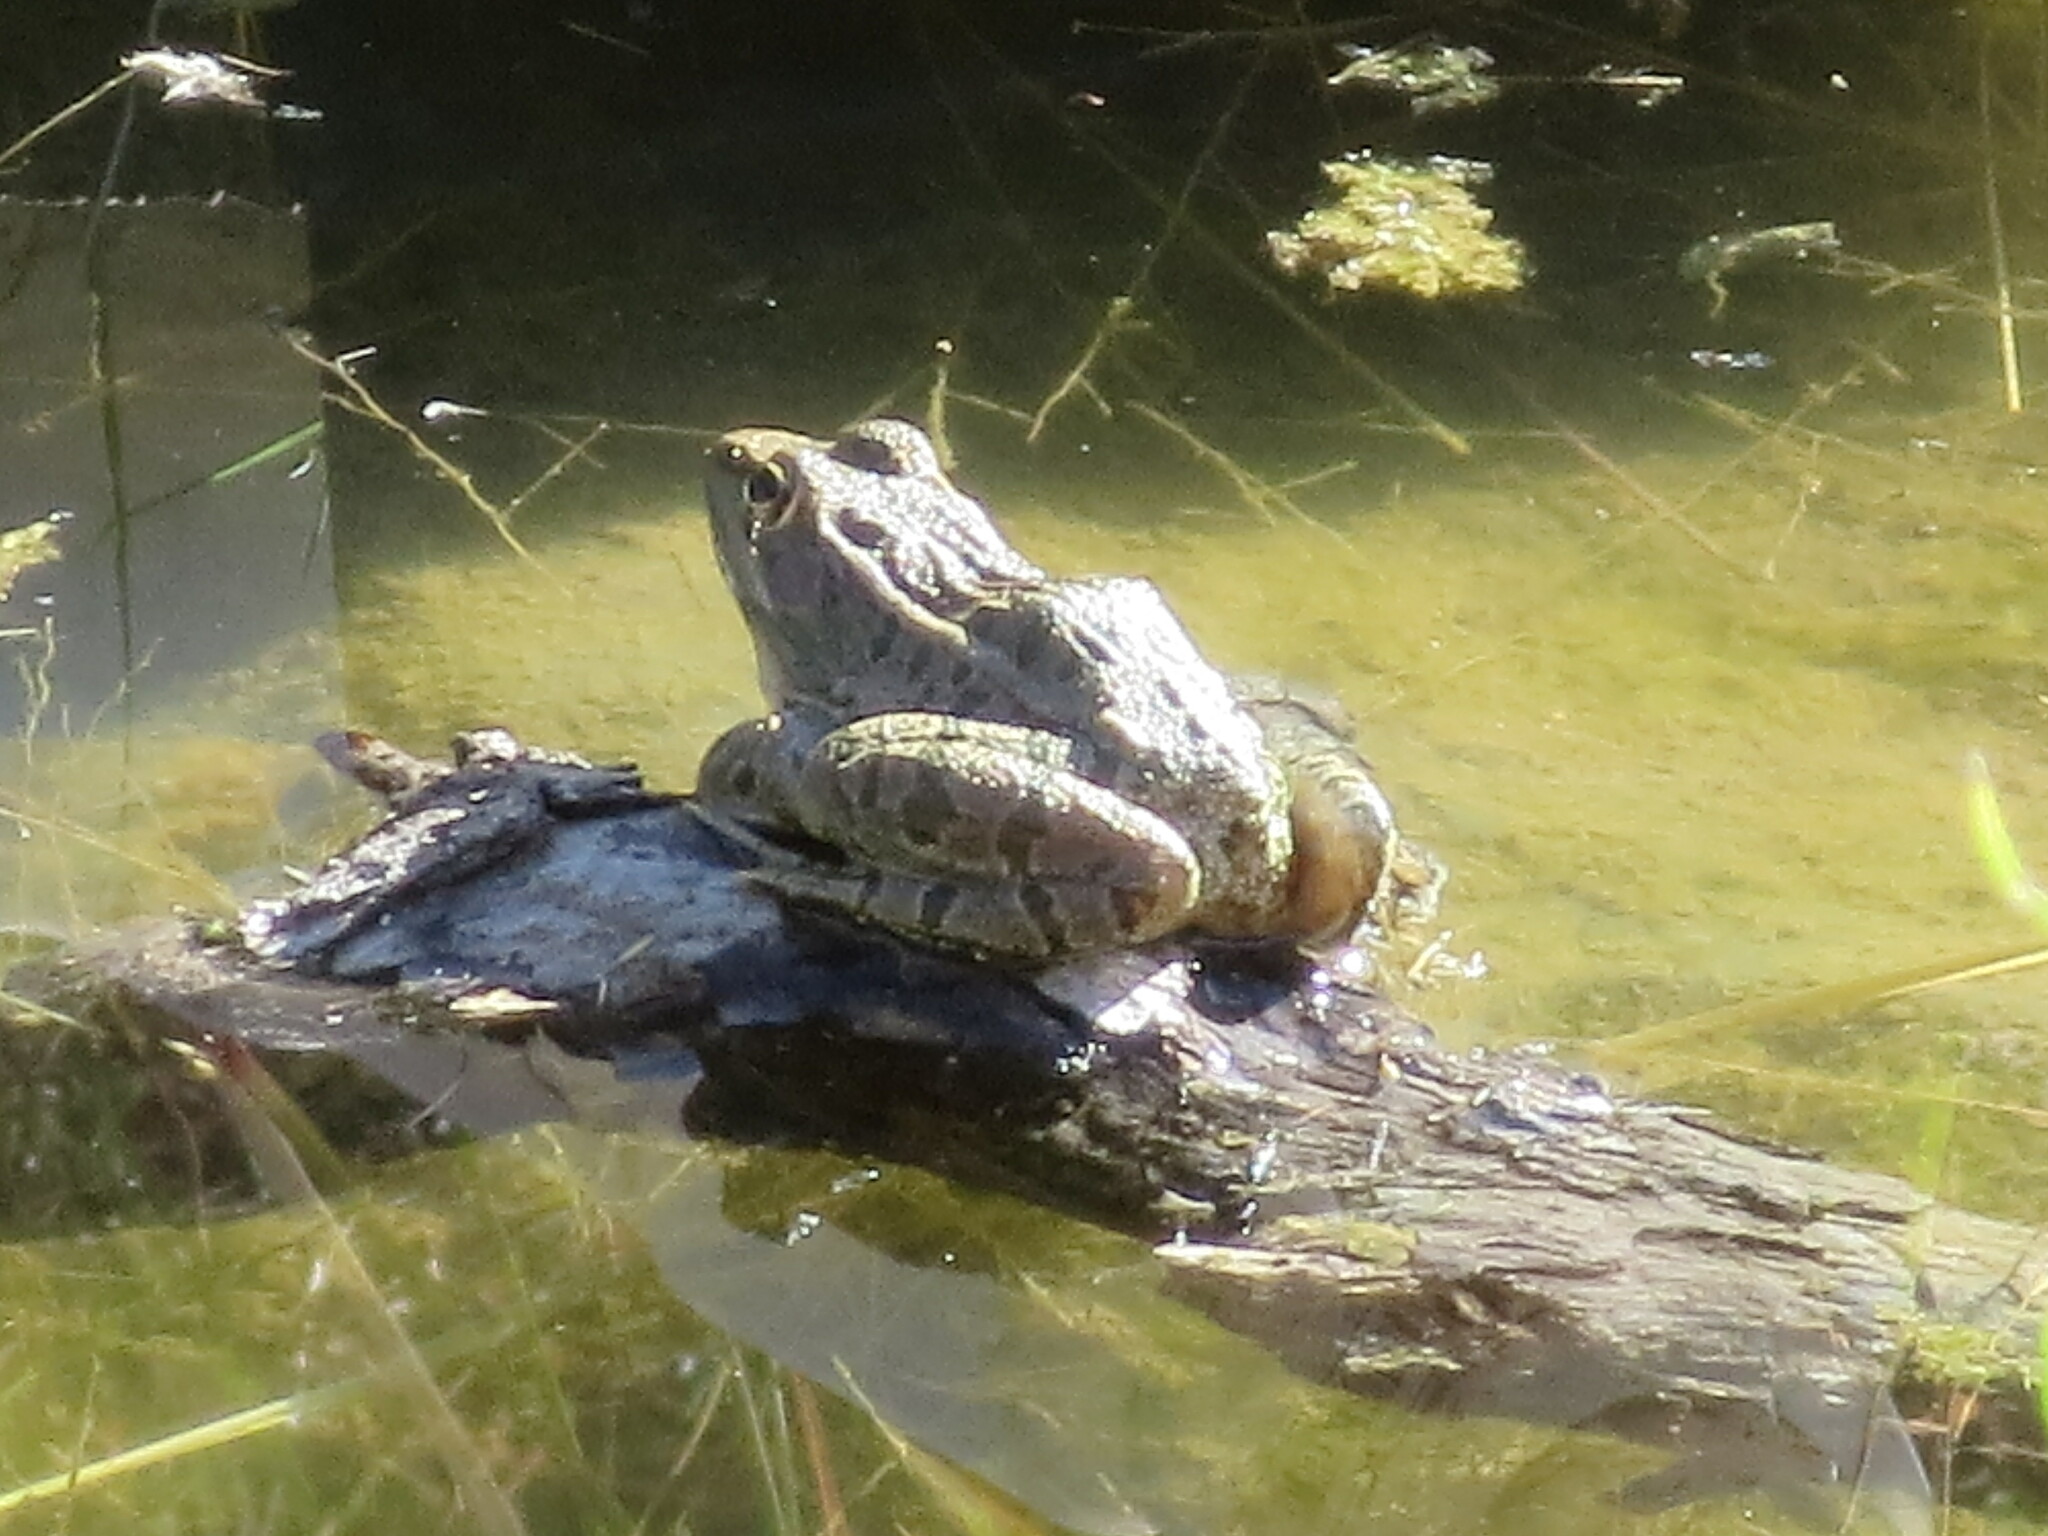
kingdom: Animalia
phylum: Chordata
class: Amphibia
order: Anura
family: Ranidae
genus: Lithobates
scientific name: Lithobates berlandieri
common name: Rio grande leopard frog
